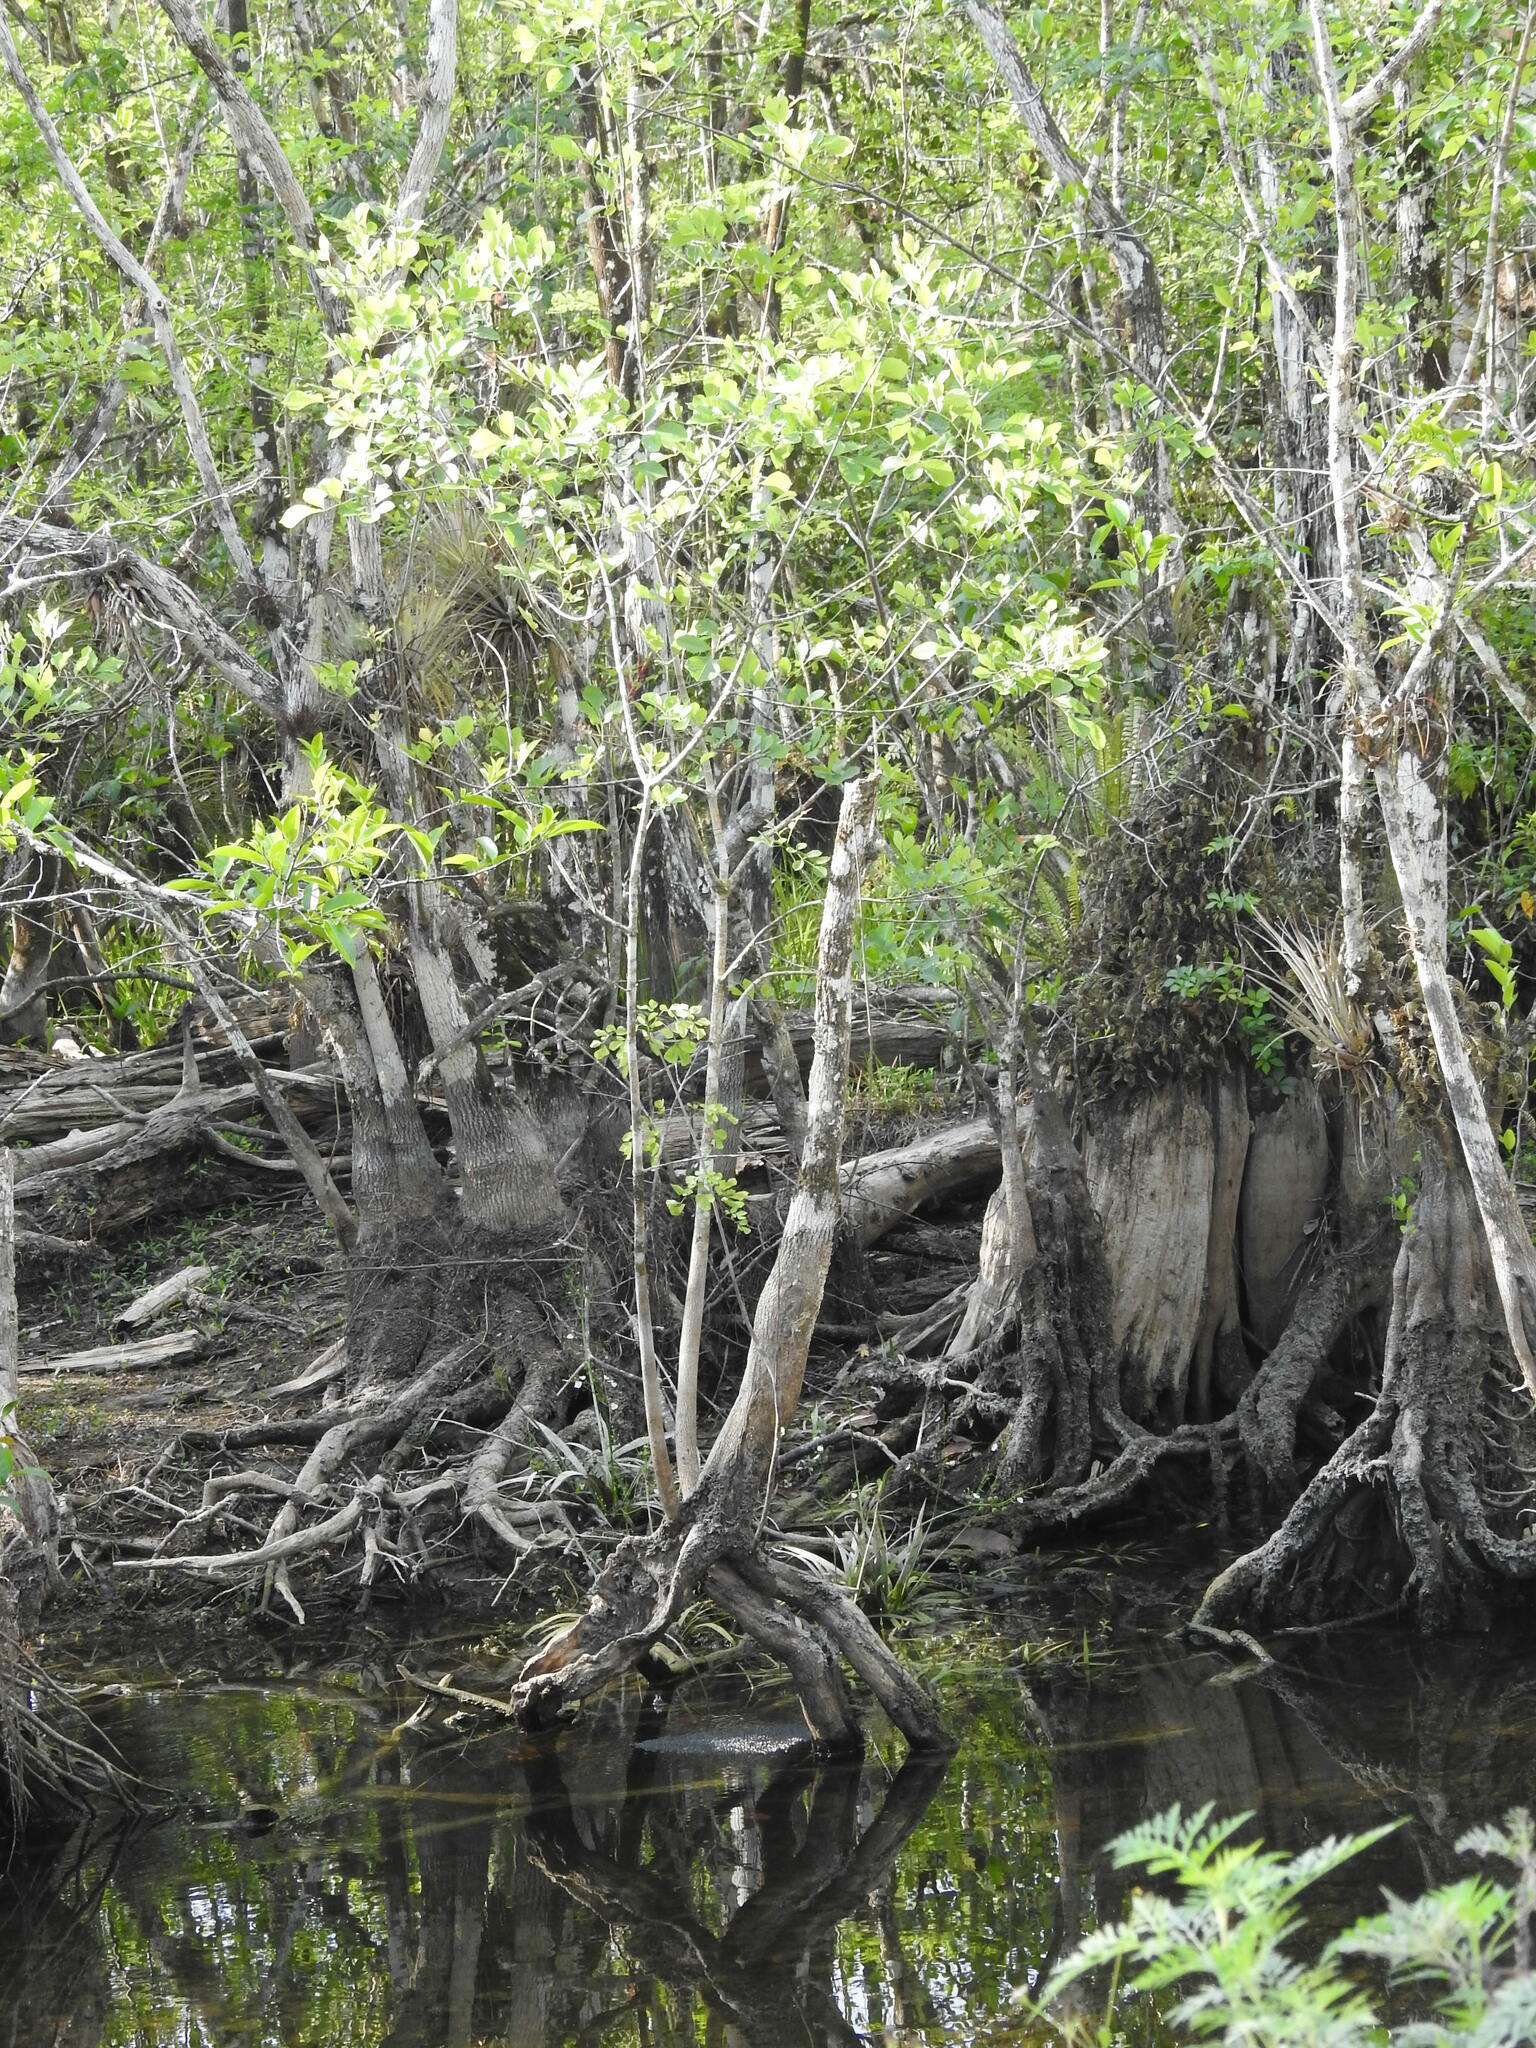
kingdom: Plantae
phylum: Tracheophyta
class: Magnoliopsida
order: Lamiales
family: Oleaceae
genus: Fraxinus
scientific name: Fraxinus caroliniana
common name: Carolina ash
